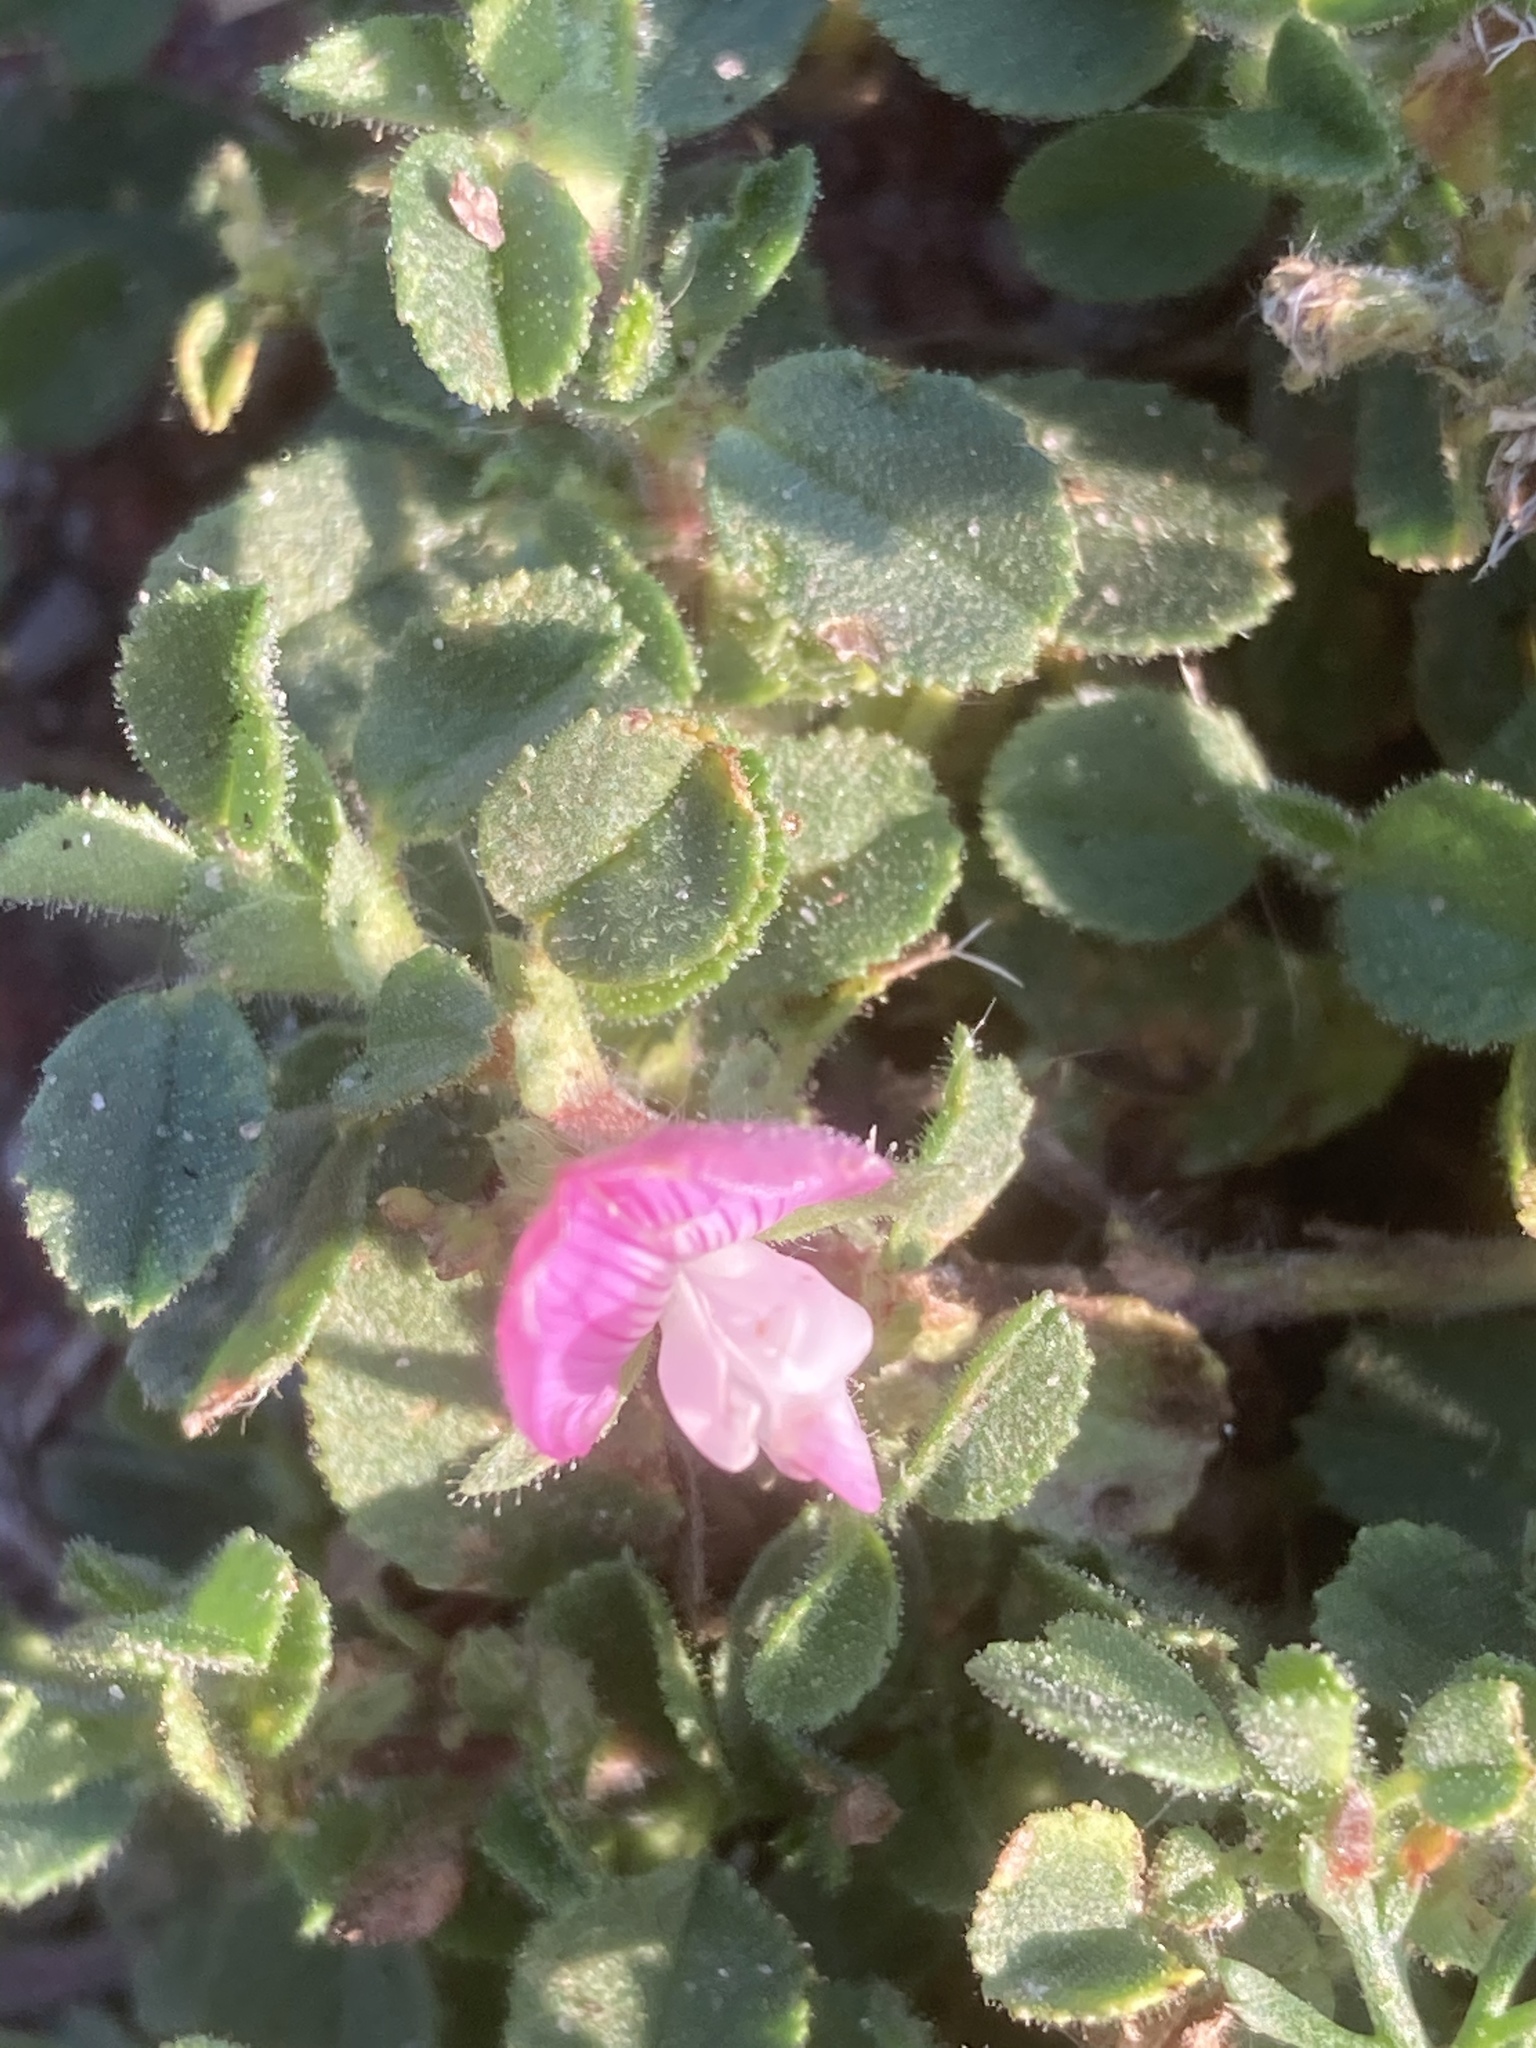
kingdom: Plantae
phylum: Tracheophyta
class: Magnoliopsida
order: Fabales
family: Fabaceae
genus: Ononis
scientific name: Ononis spinosa
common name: Spiny restharrow
